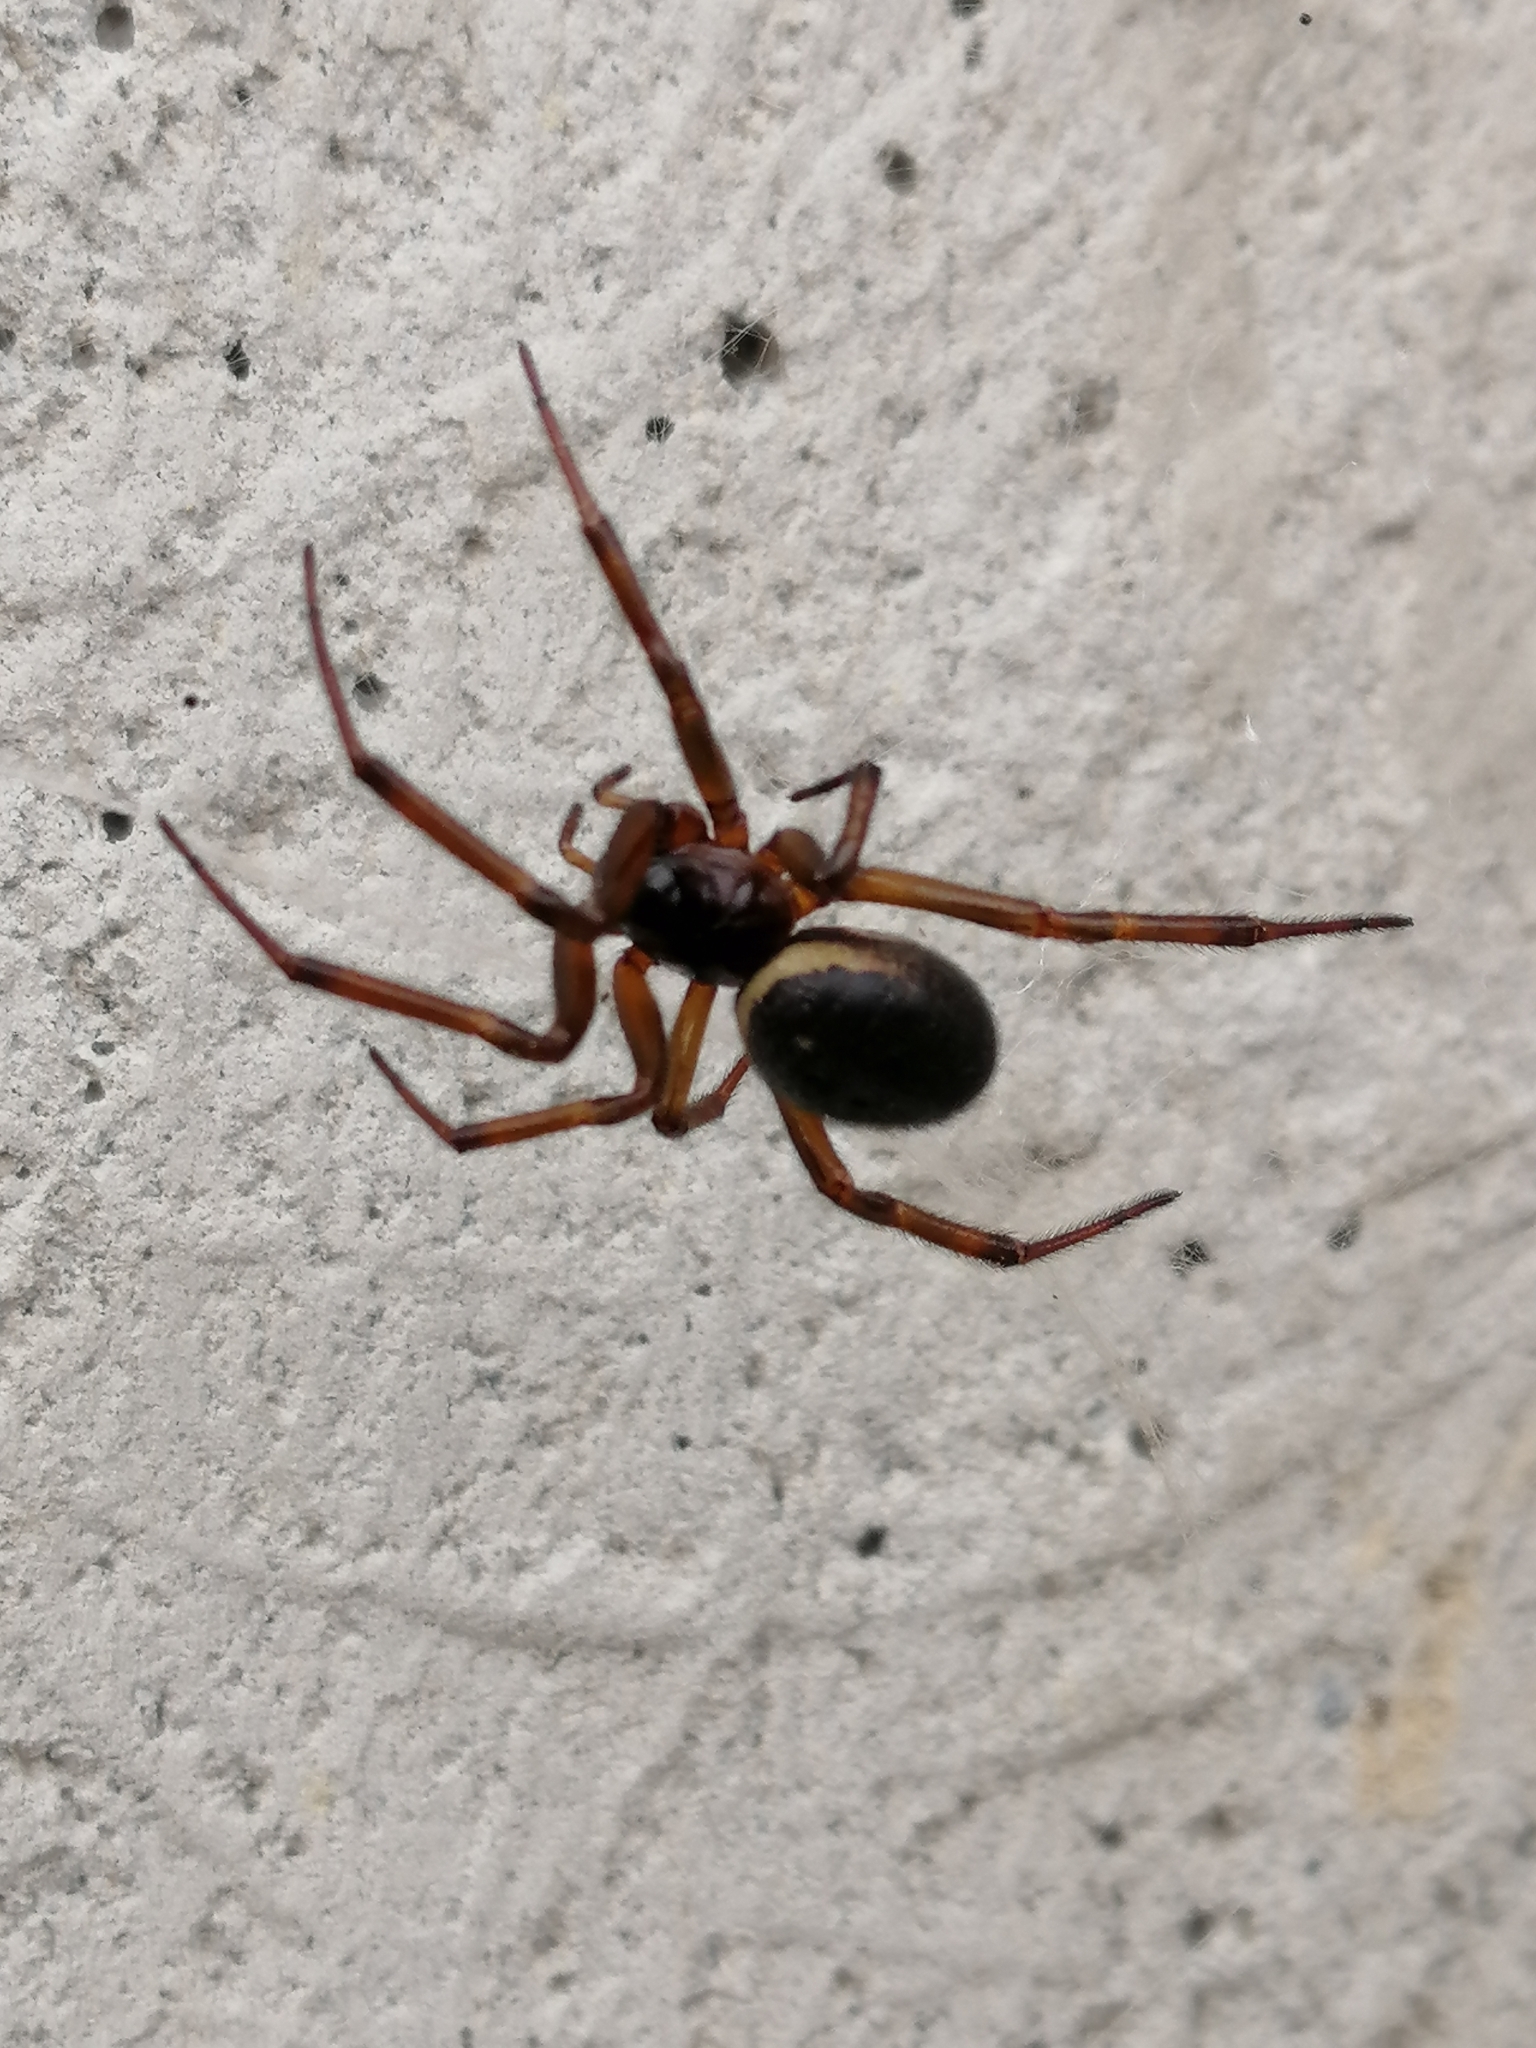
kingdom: Animalia
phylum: Arthropoda
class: Arachnida
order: Araneae
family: Theridiidae
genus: Steatoda
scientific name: Steatoda grossa
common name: False black widow
